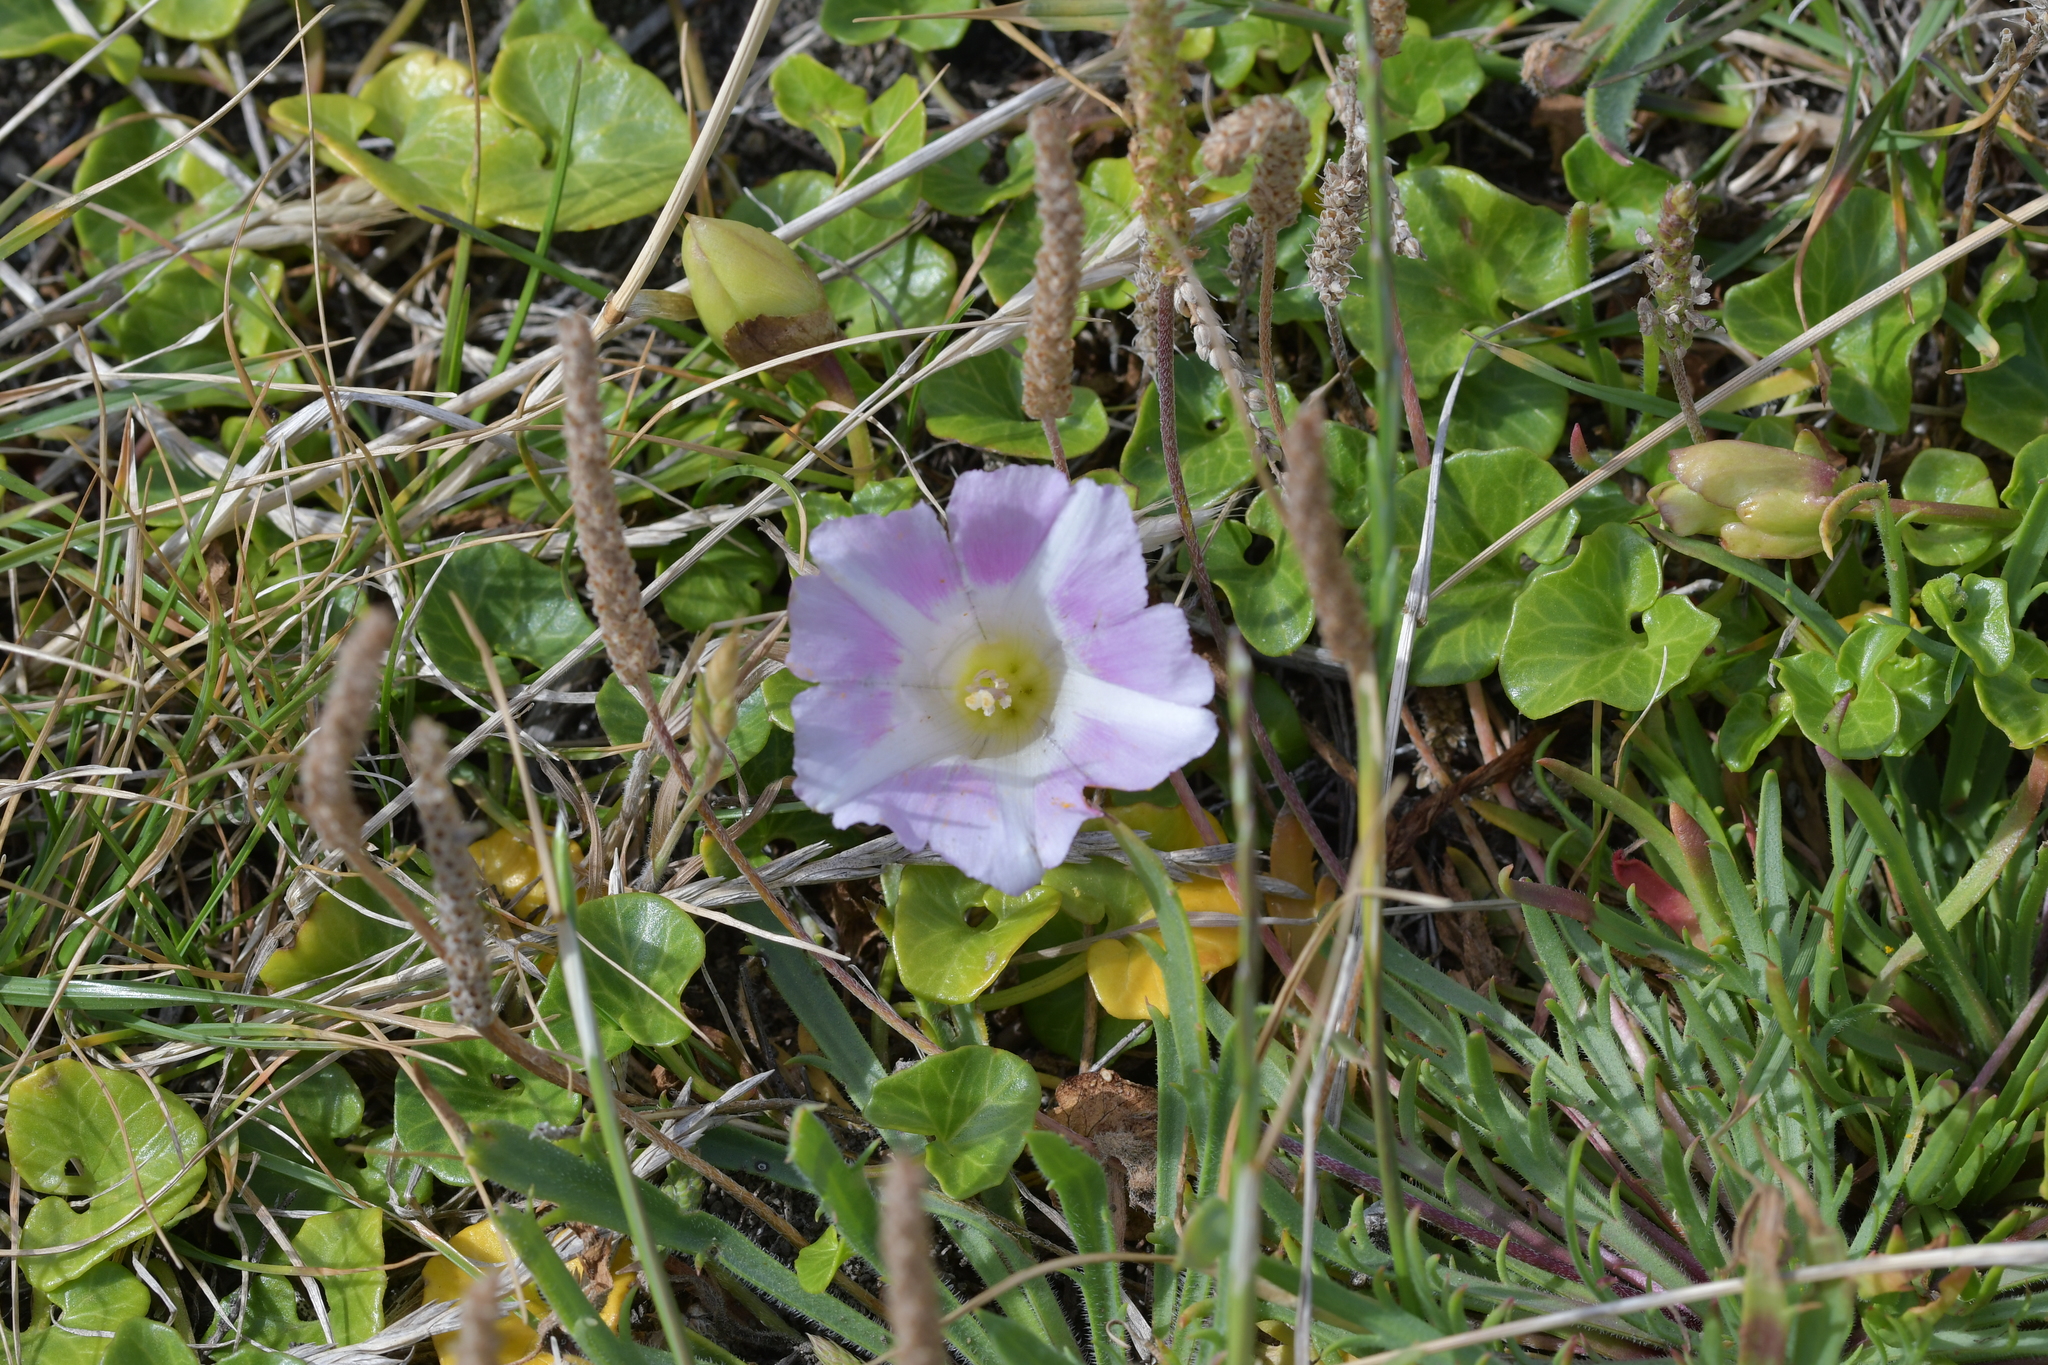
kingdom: Plantae
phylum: Tracheophyta
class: Magnoliopsida
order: Solanales
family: Convolvulaceae
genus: Calystegia
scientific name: Calystegia soldanella
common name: Sea bindweed
